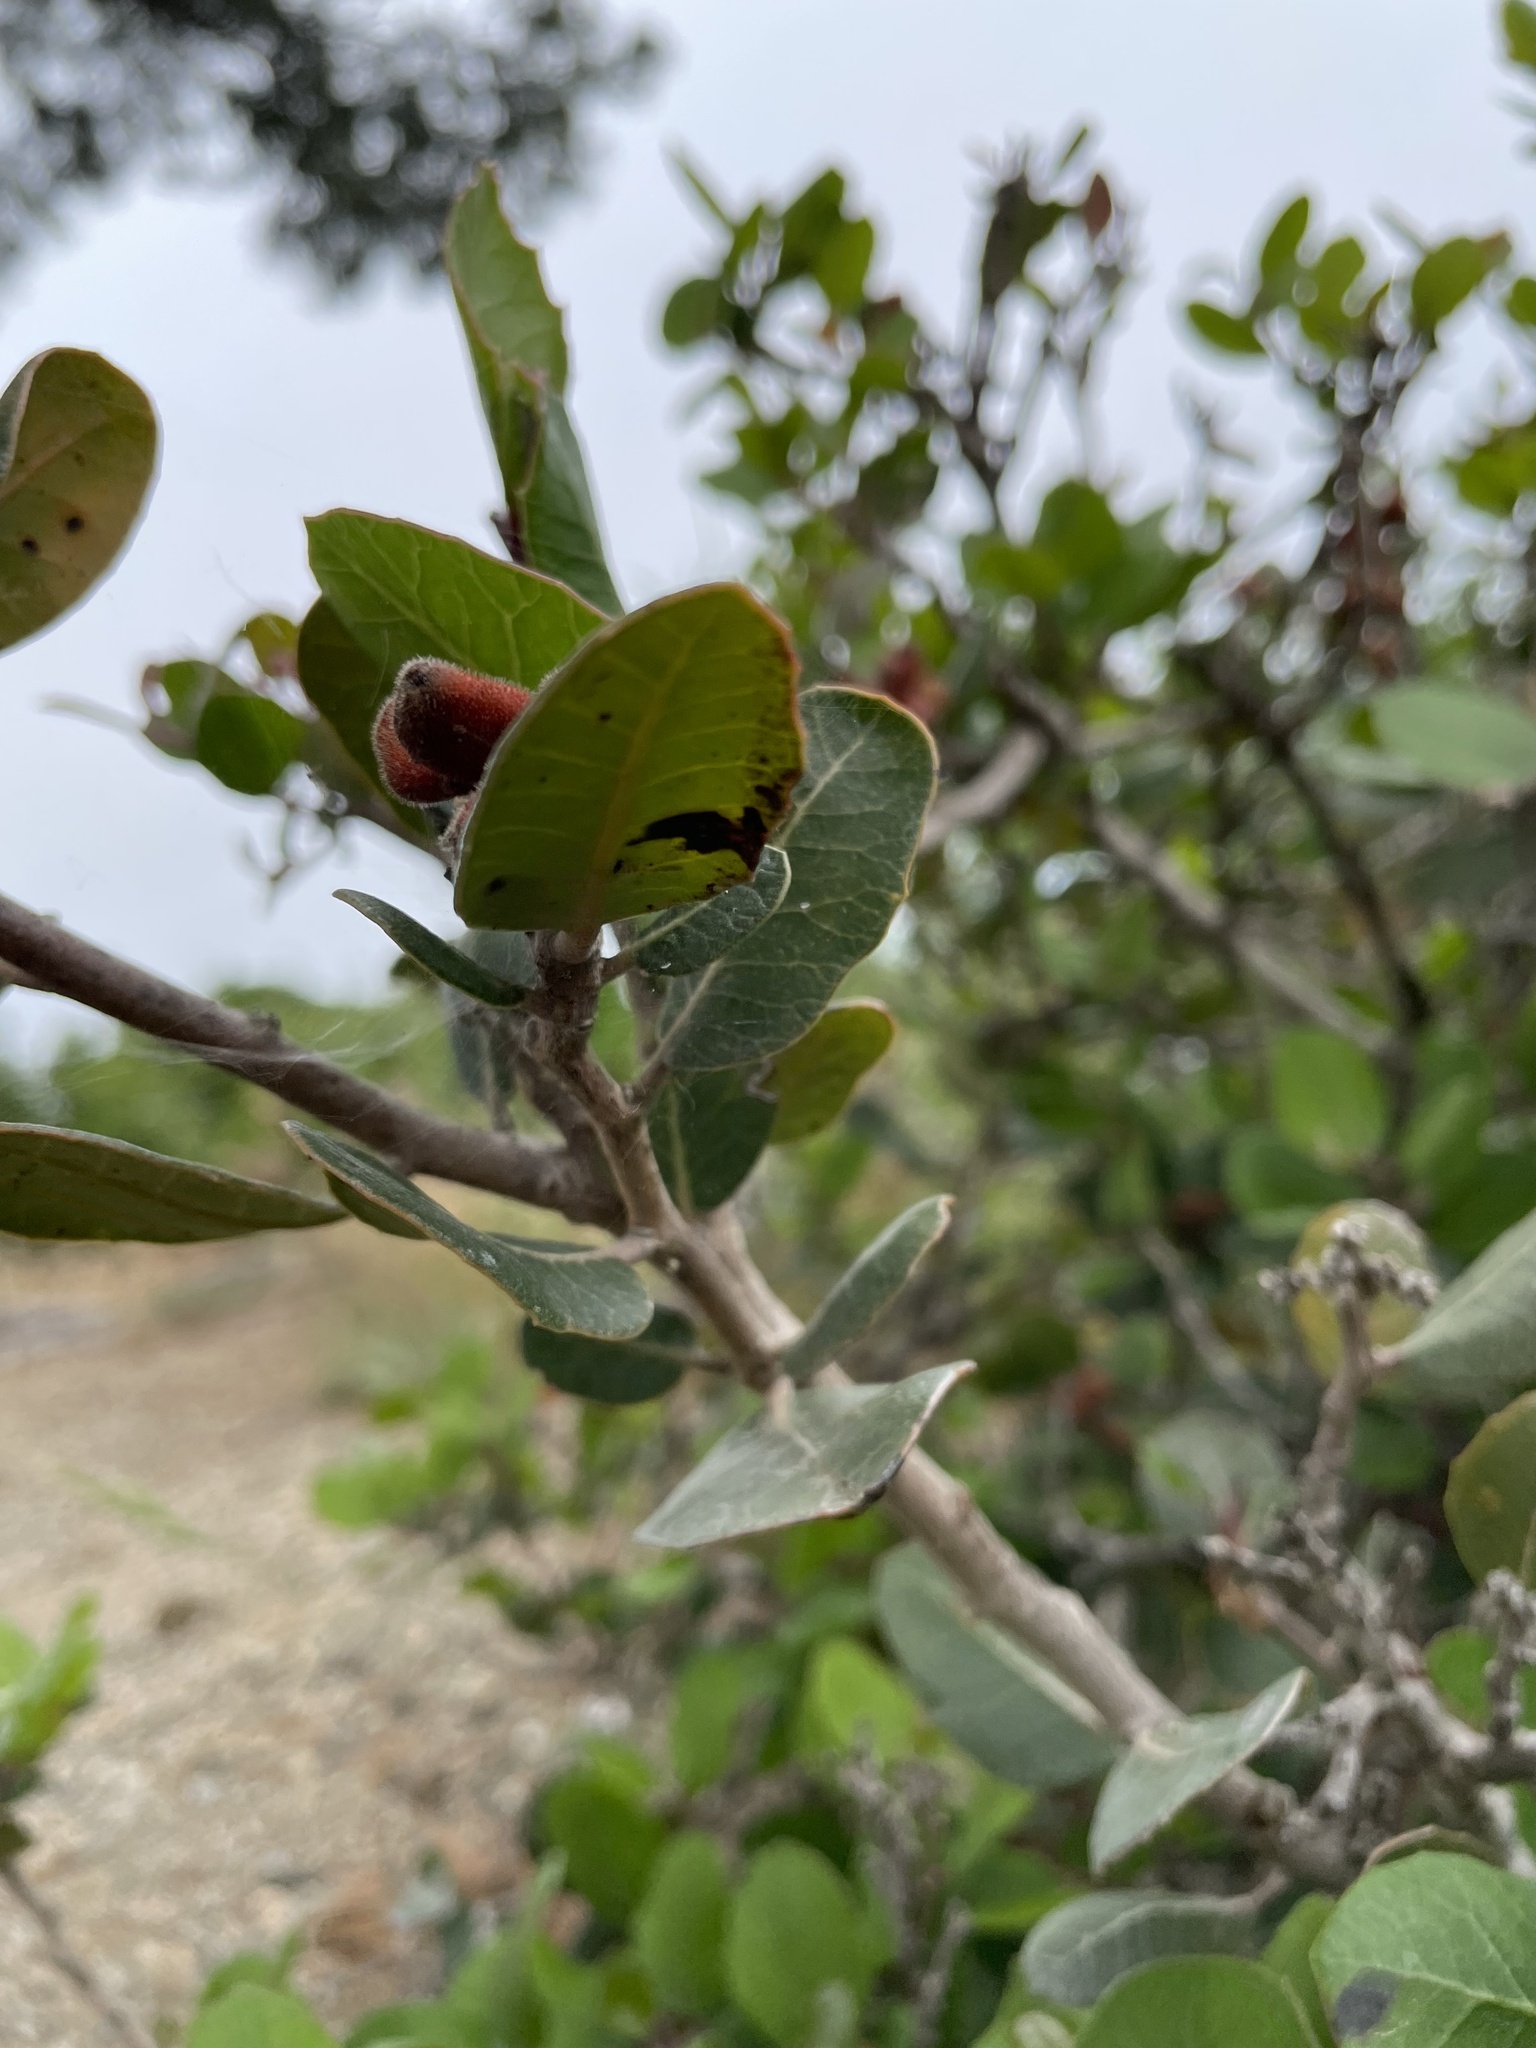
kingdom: Plantae
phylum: Tracheophyta
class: Magnoliopsida
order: Sapindales
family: Anacardiaceae
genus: Rhus
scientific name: Rhus integrifolia
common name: Lemonade sumac
